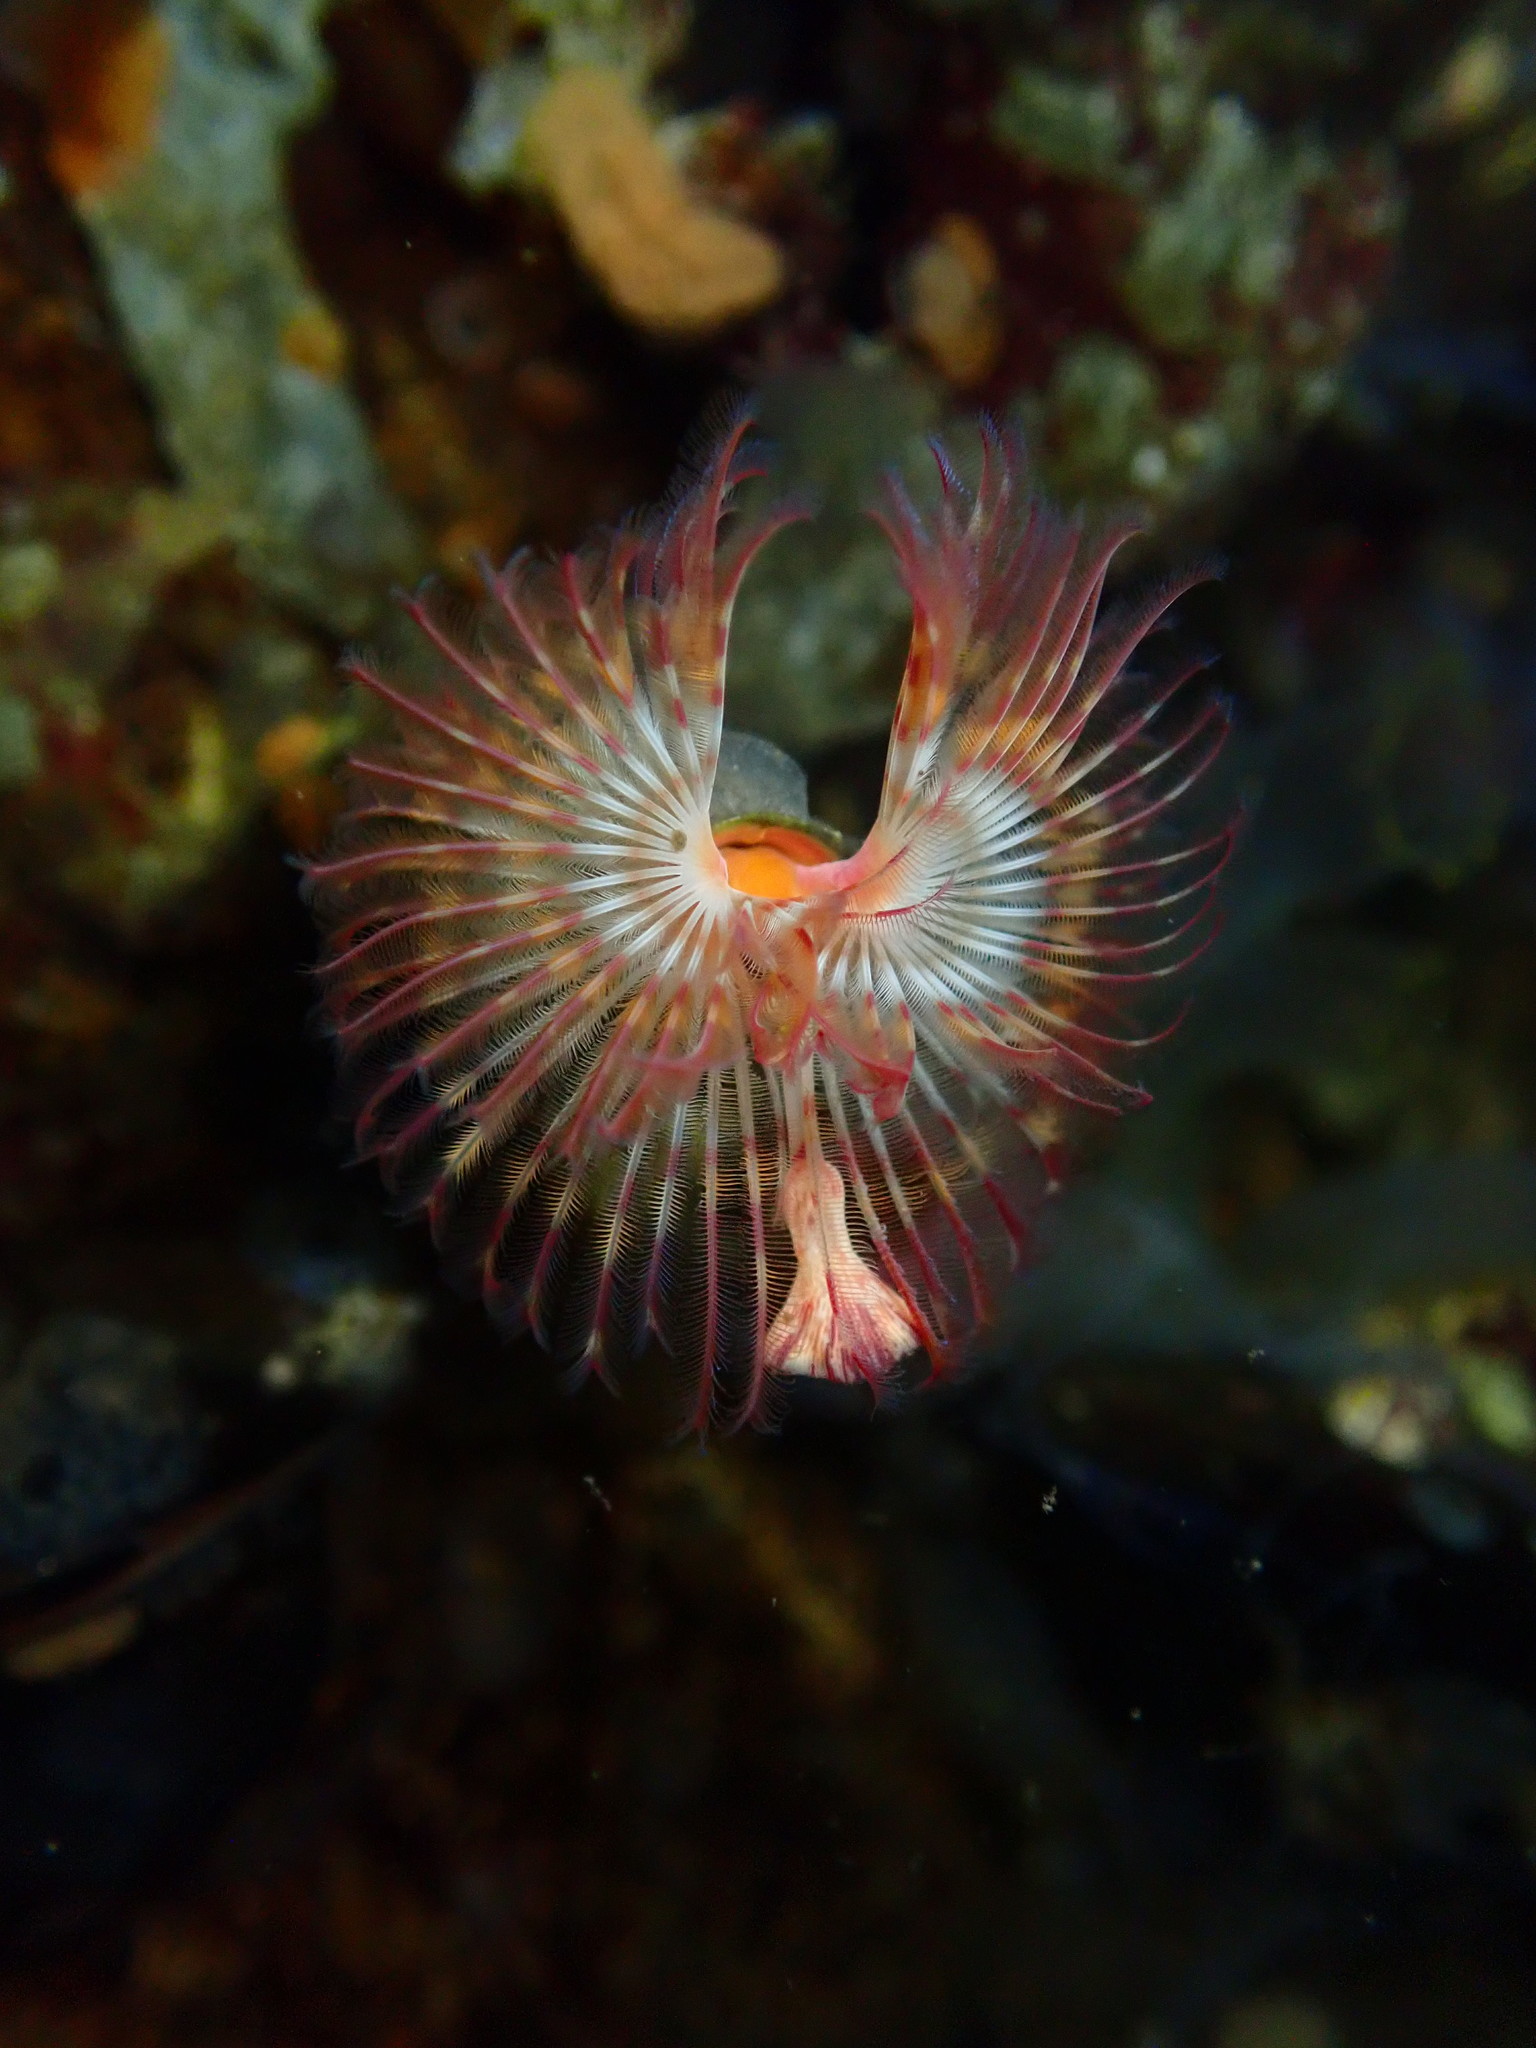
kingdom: Animalia
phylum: Annelida
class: Polychaeta
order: Sabellida
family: Serpulidae
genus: Serpula
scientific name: Serpula columbiana
